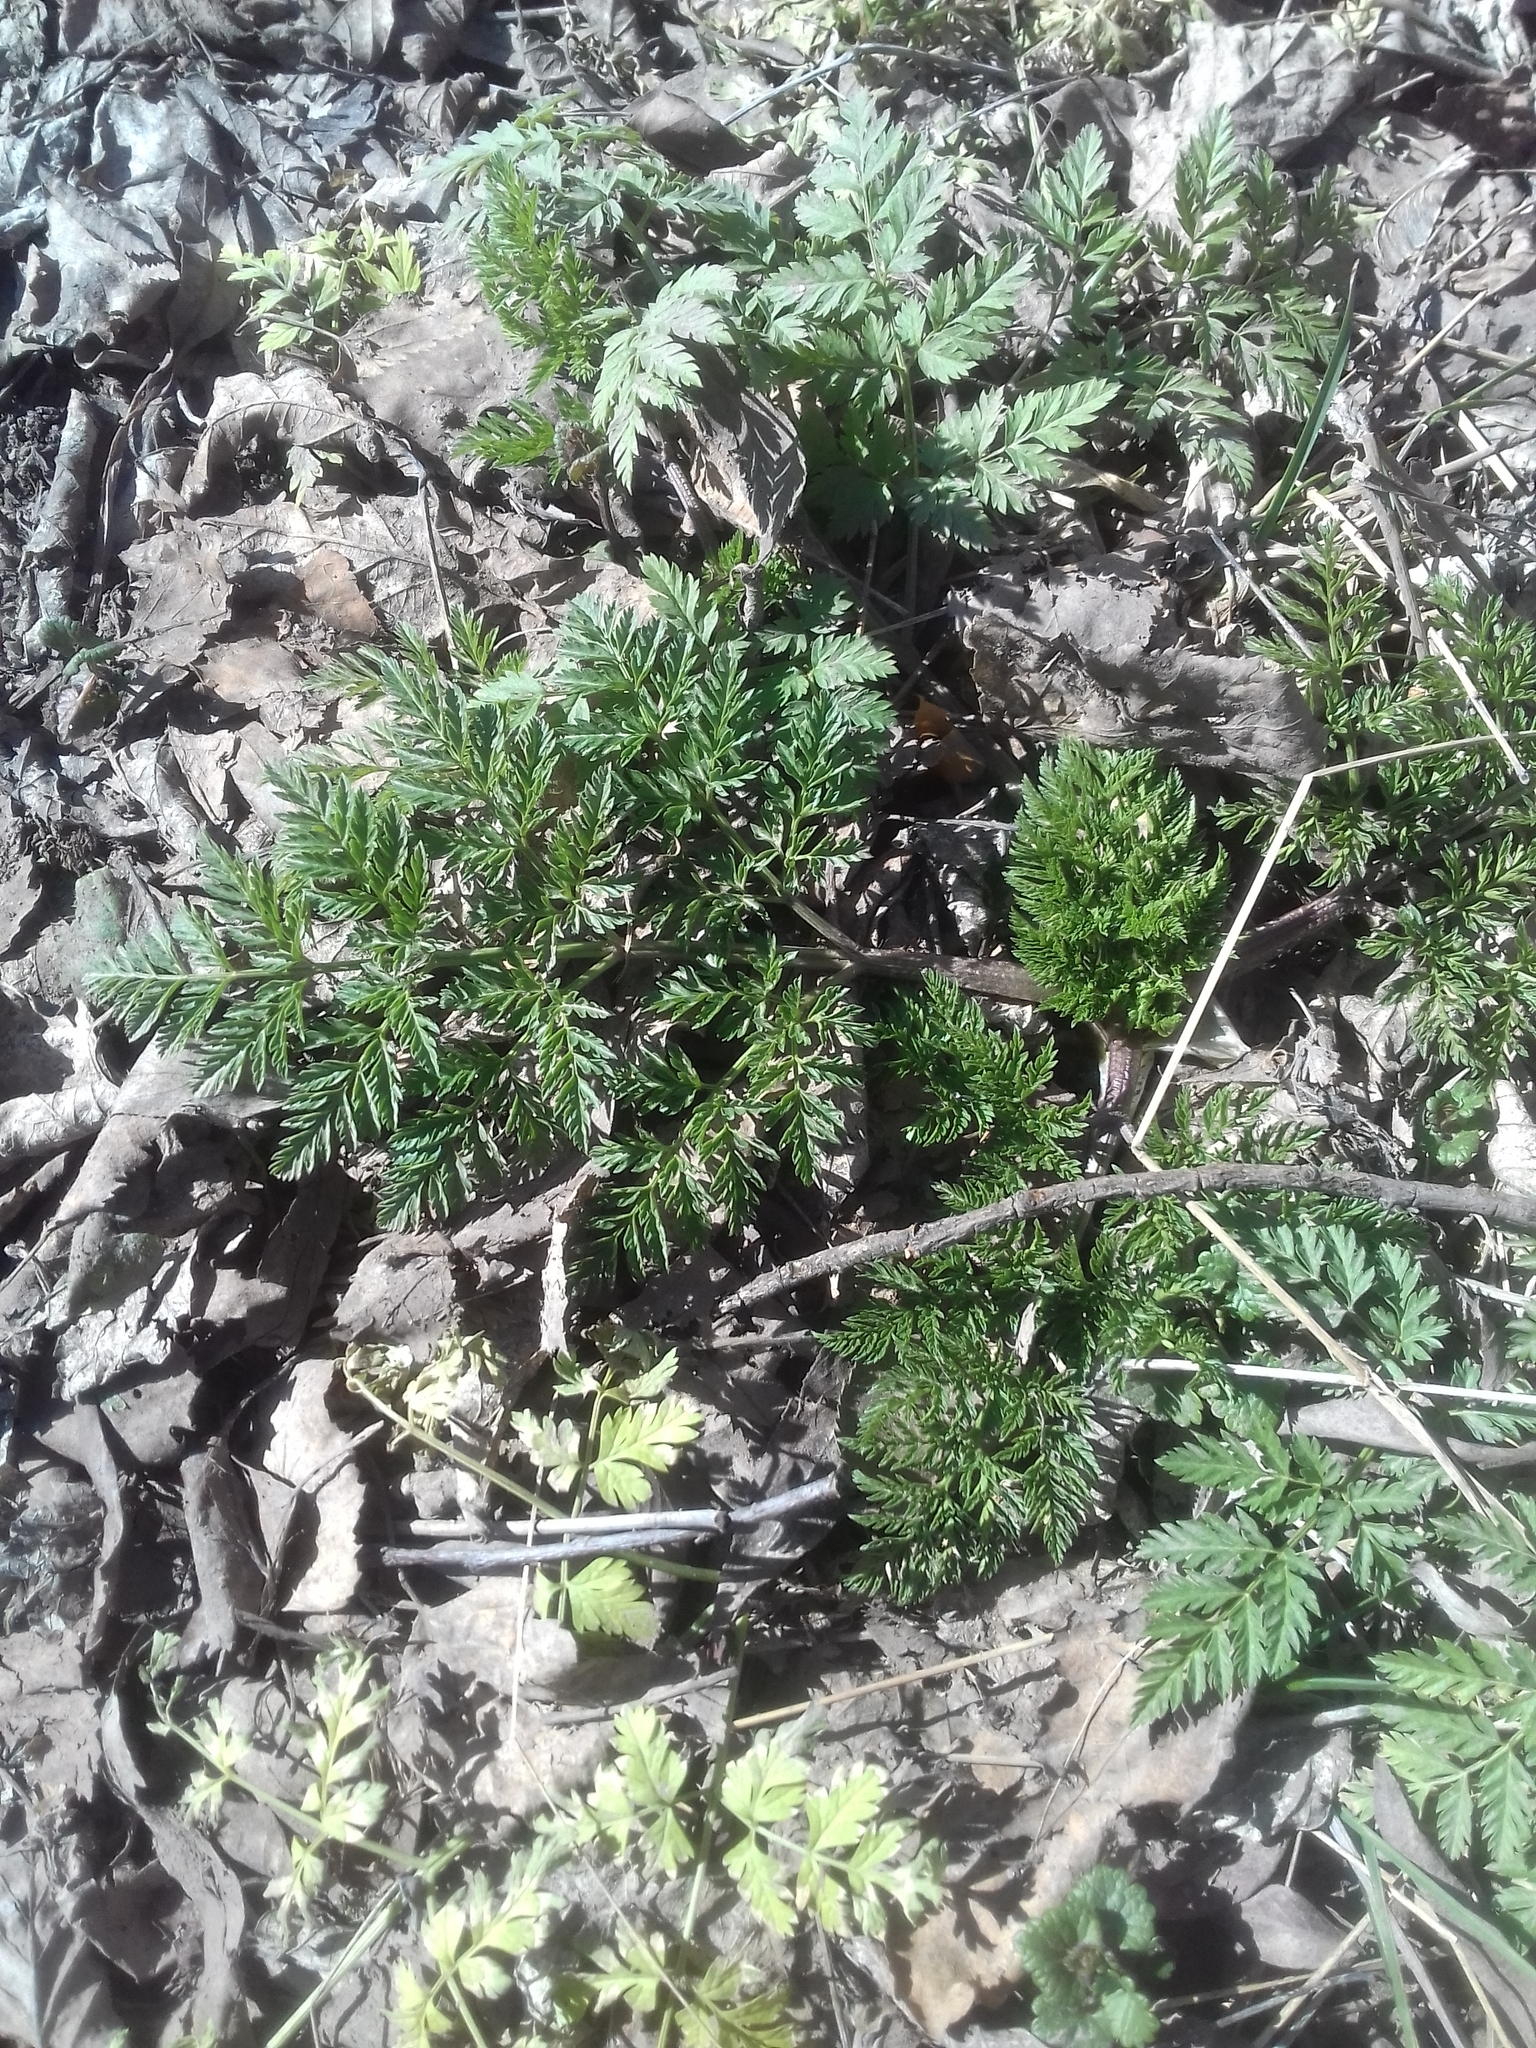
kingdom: Plantae
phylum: Tracheophyta
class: Magnoliopsida
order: Apiales
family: Apiaceae
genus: Anthriscus
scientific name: Anthriscus sylvestris
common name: Cow parsley
